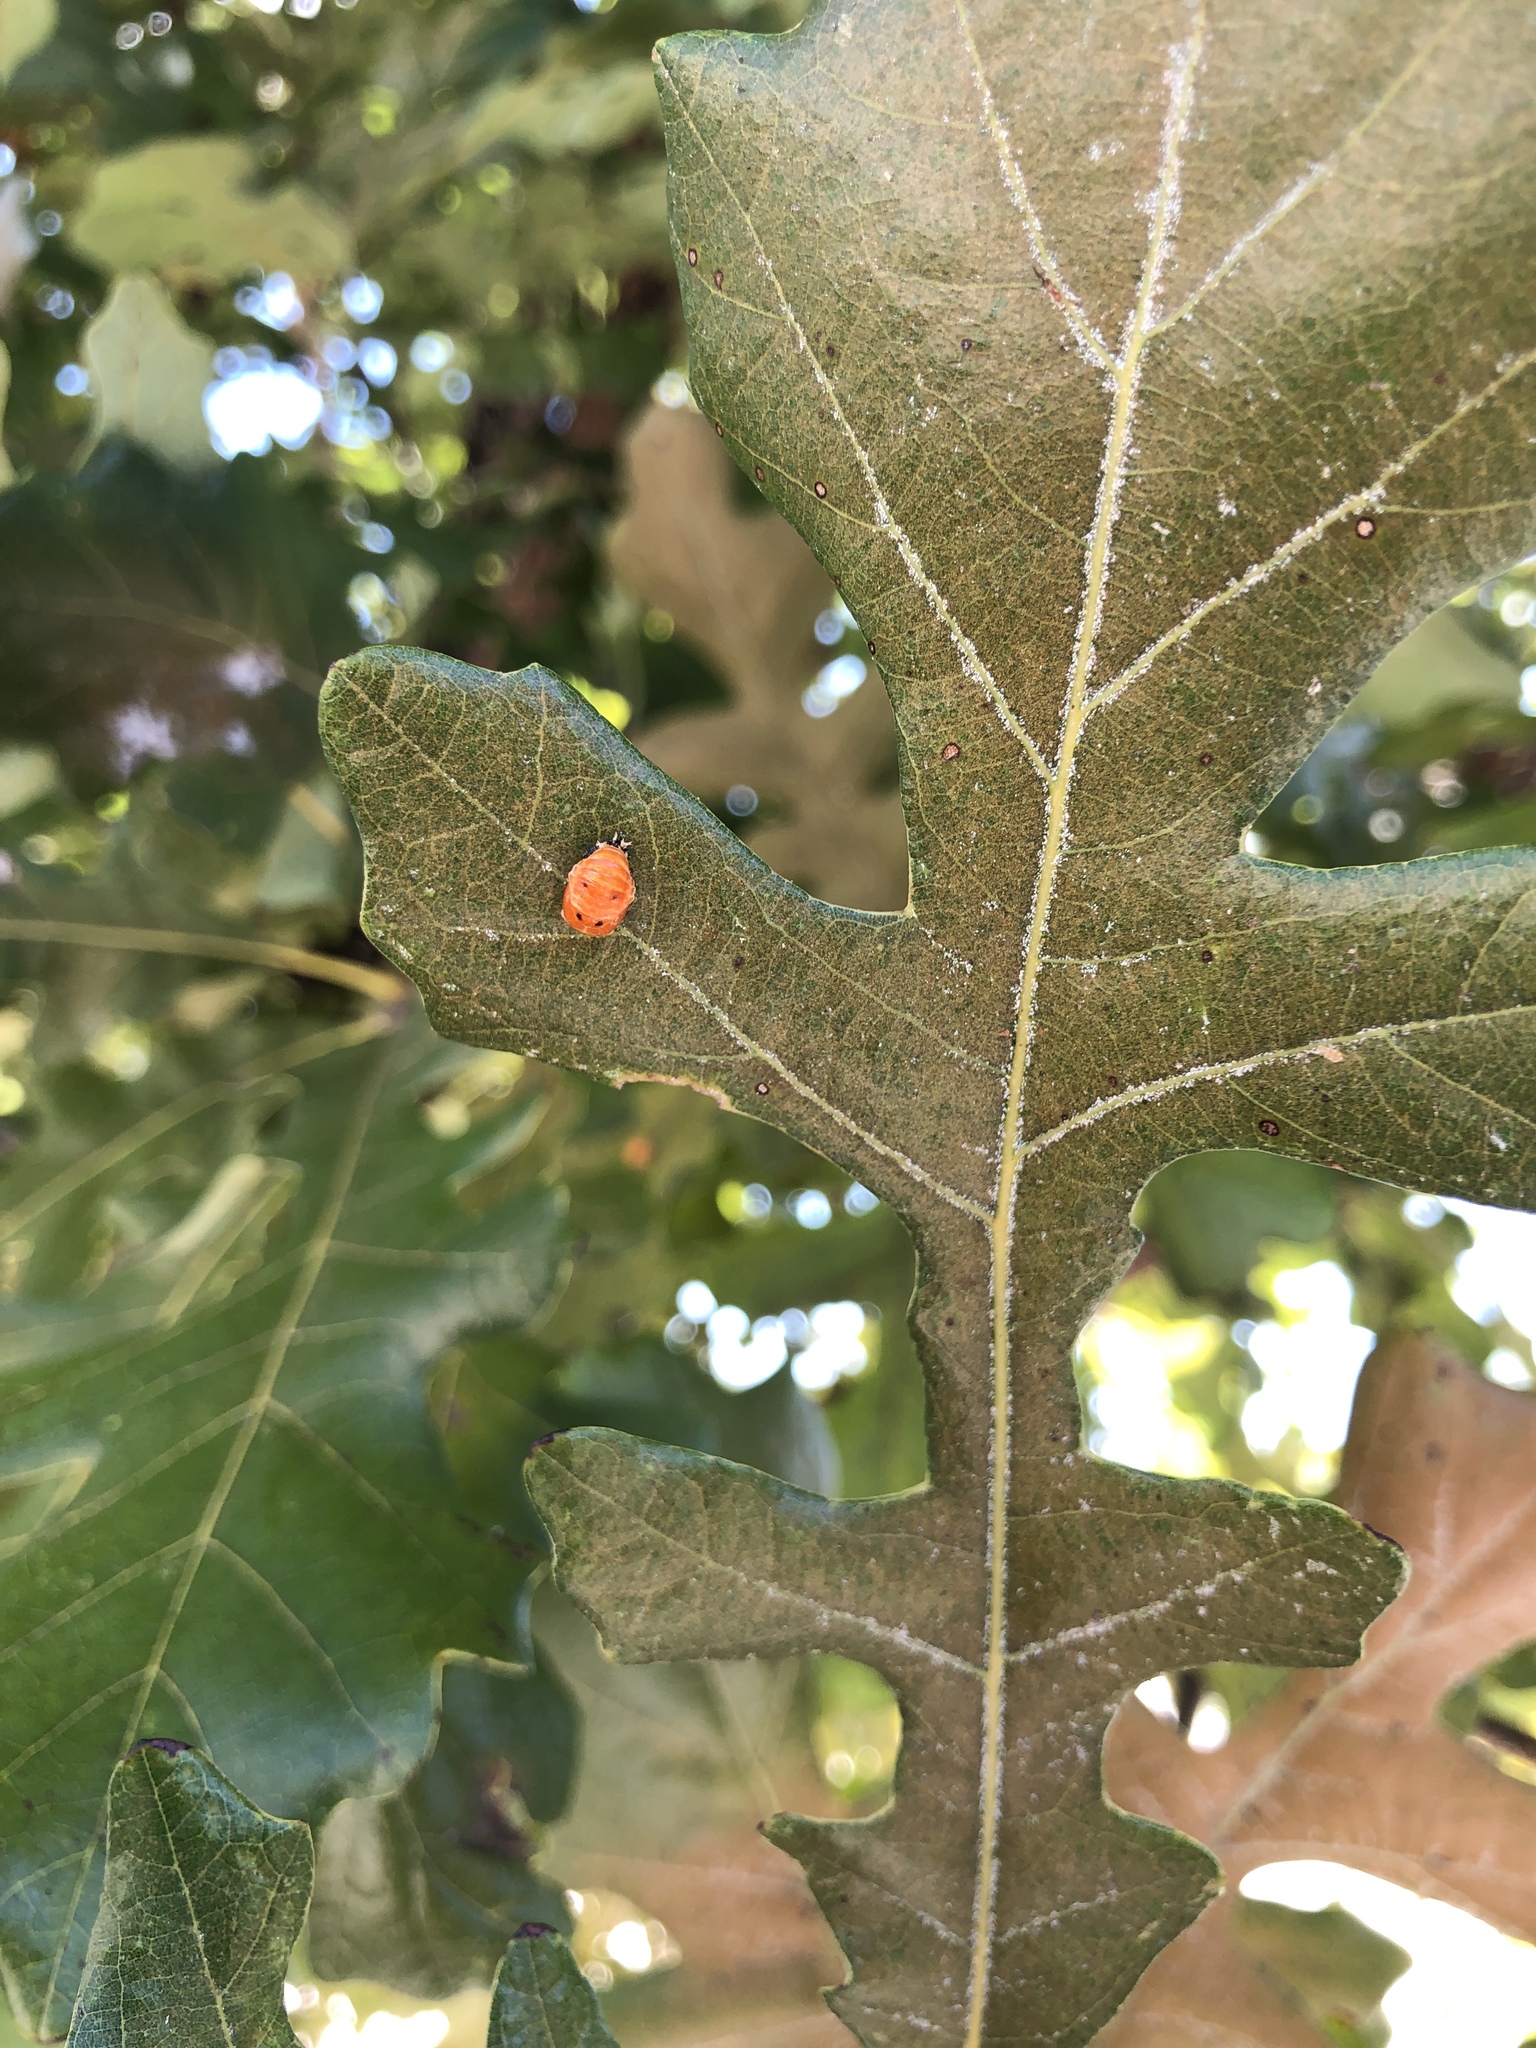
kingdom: Animalia
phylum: Arthropoda
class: Insecta
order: Coleoptera
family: Coccinellidae
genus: Harmonia
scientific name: Harmonia axyridis
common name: Harlequin ladybird
